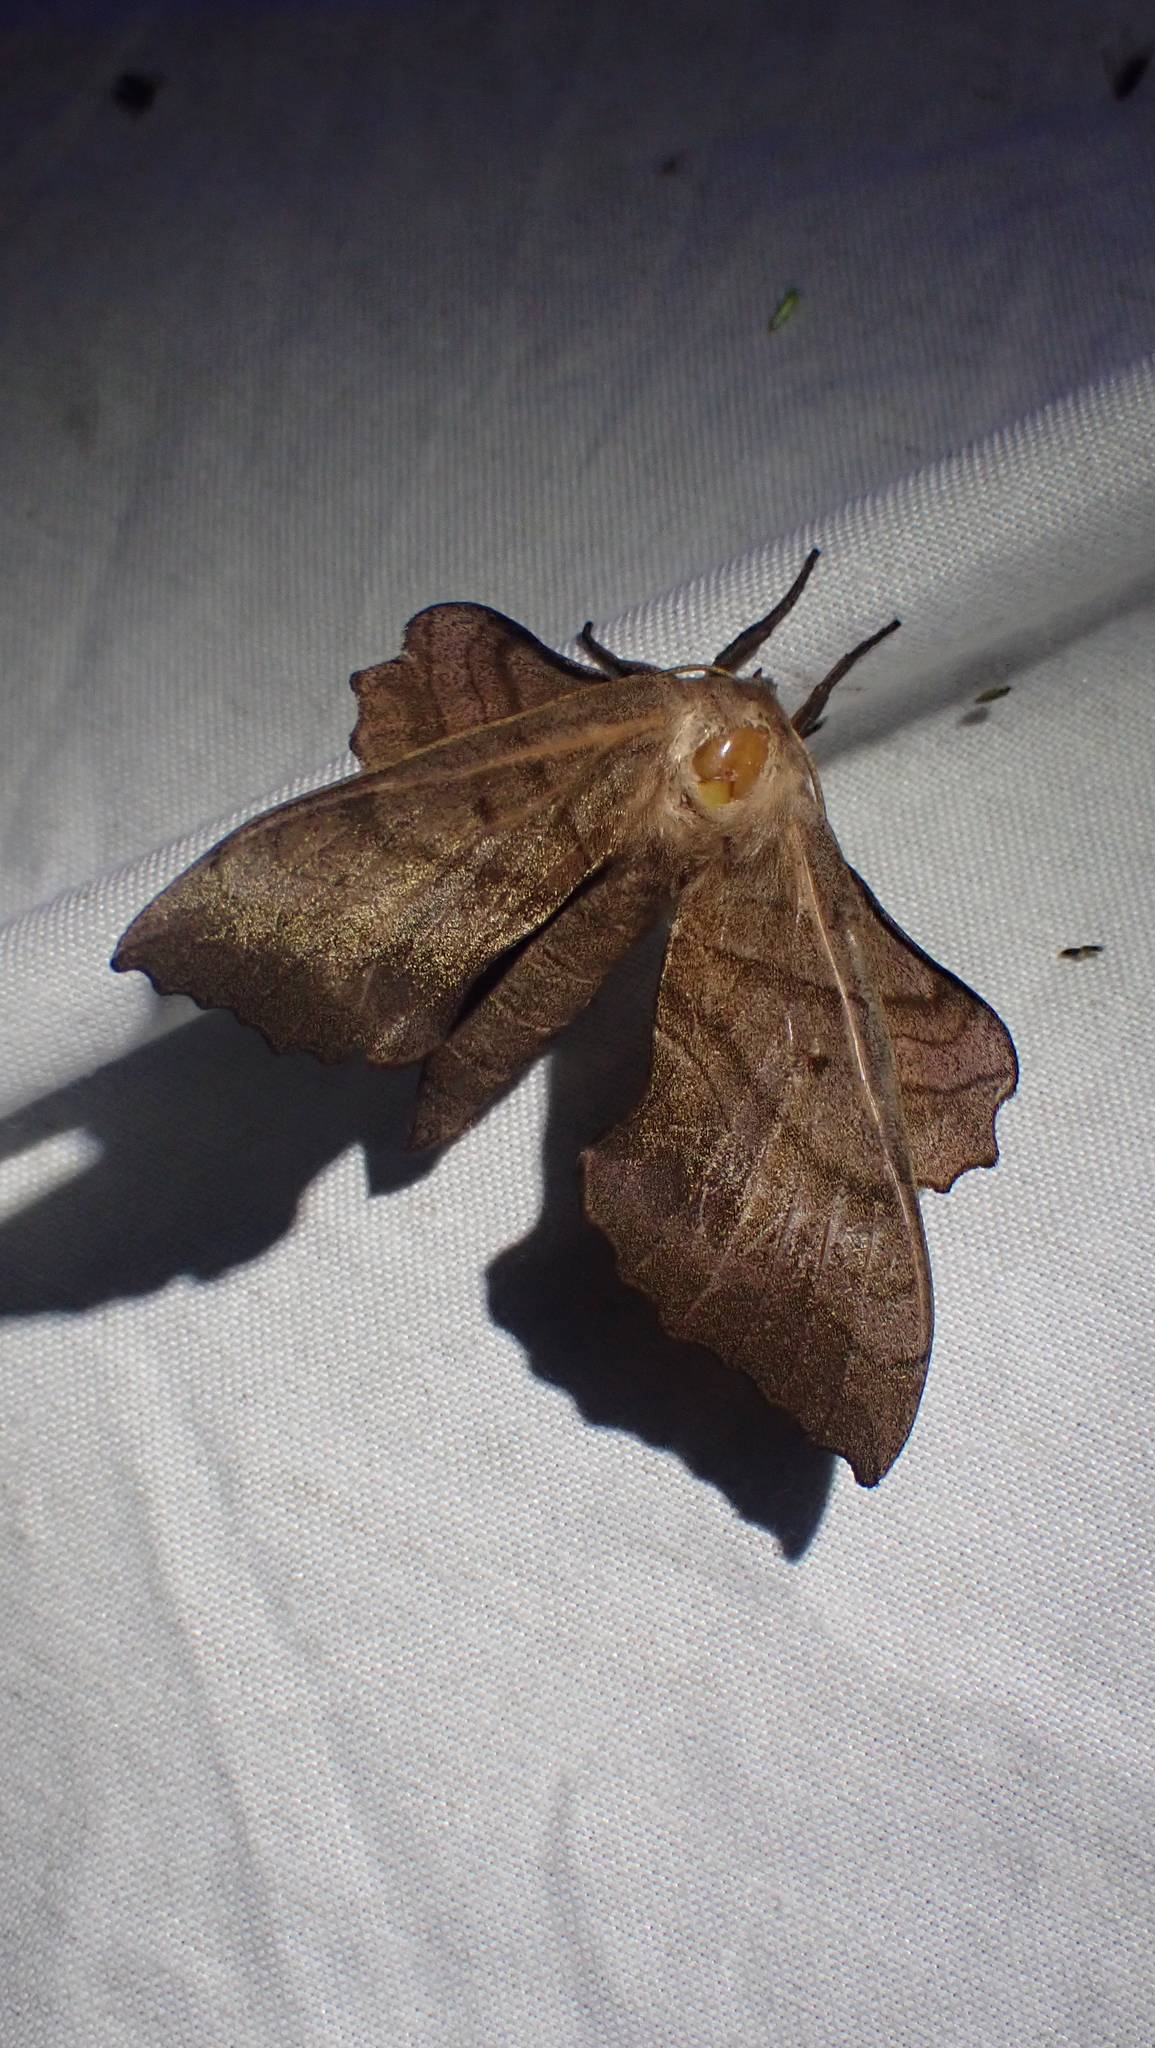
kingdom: Animalia
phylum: Arthropoda
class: Insecta
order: Lepidoptera
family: Sphingidae
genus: Amorpha
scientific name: Amorpha juglandis
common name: Walnut sphinx
